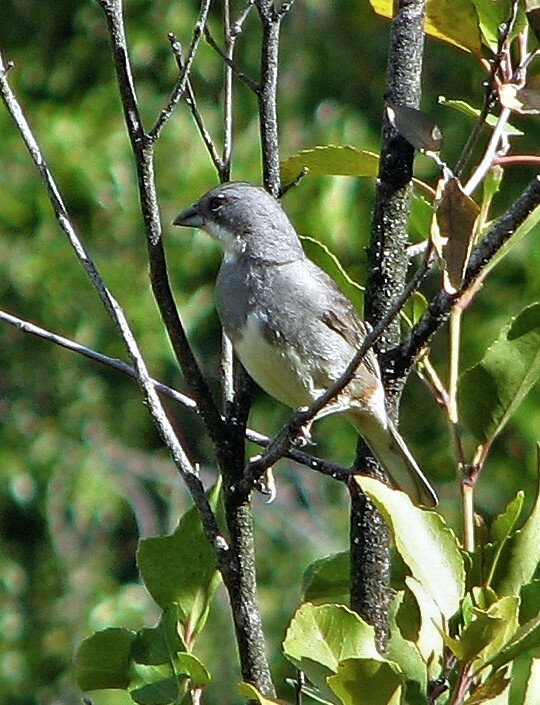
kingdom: Animalia
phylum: Chordata
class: Aves
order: Passeriformes
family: Thraupidae
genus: Diuca
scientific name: Diuca diuca
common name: Common diuca finch
